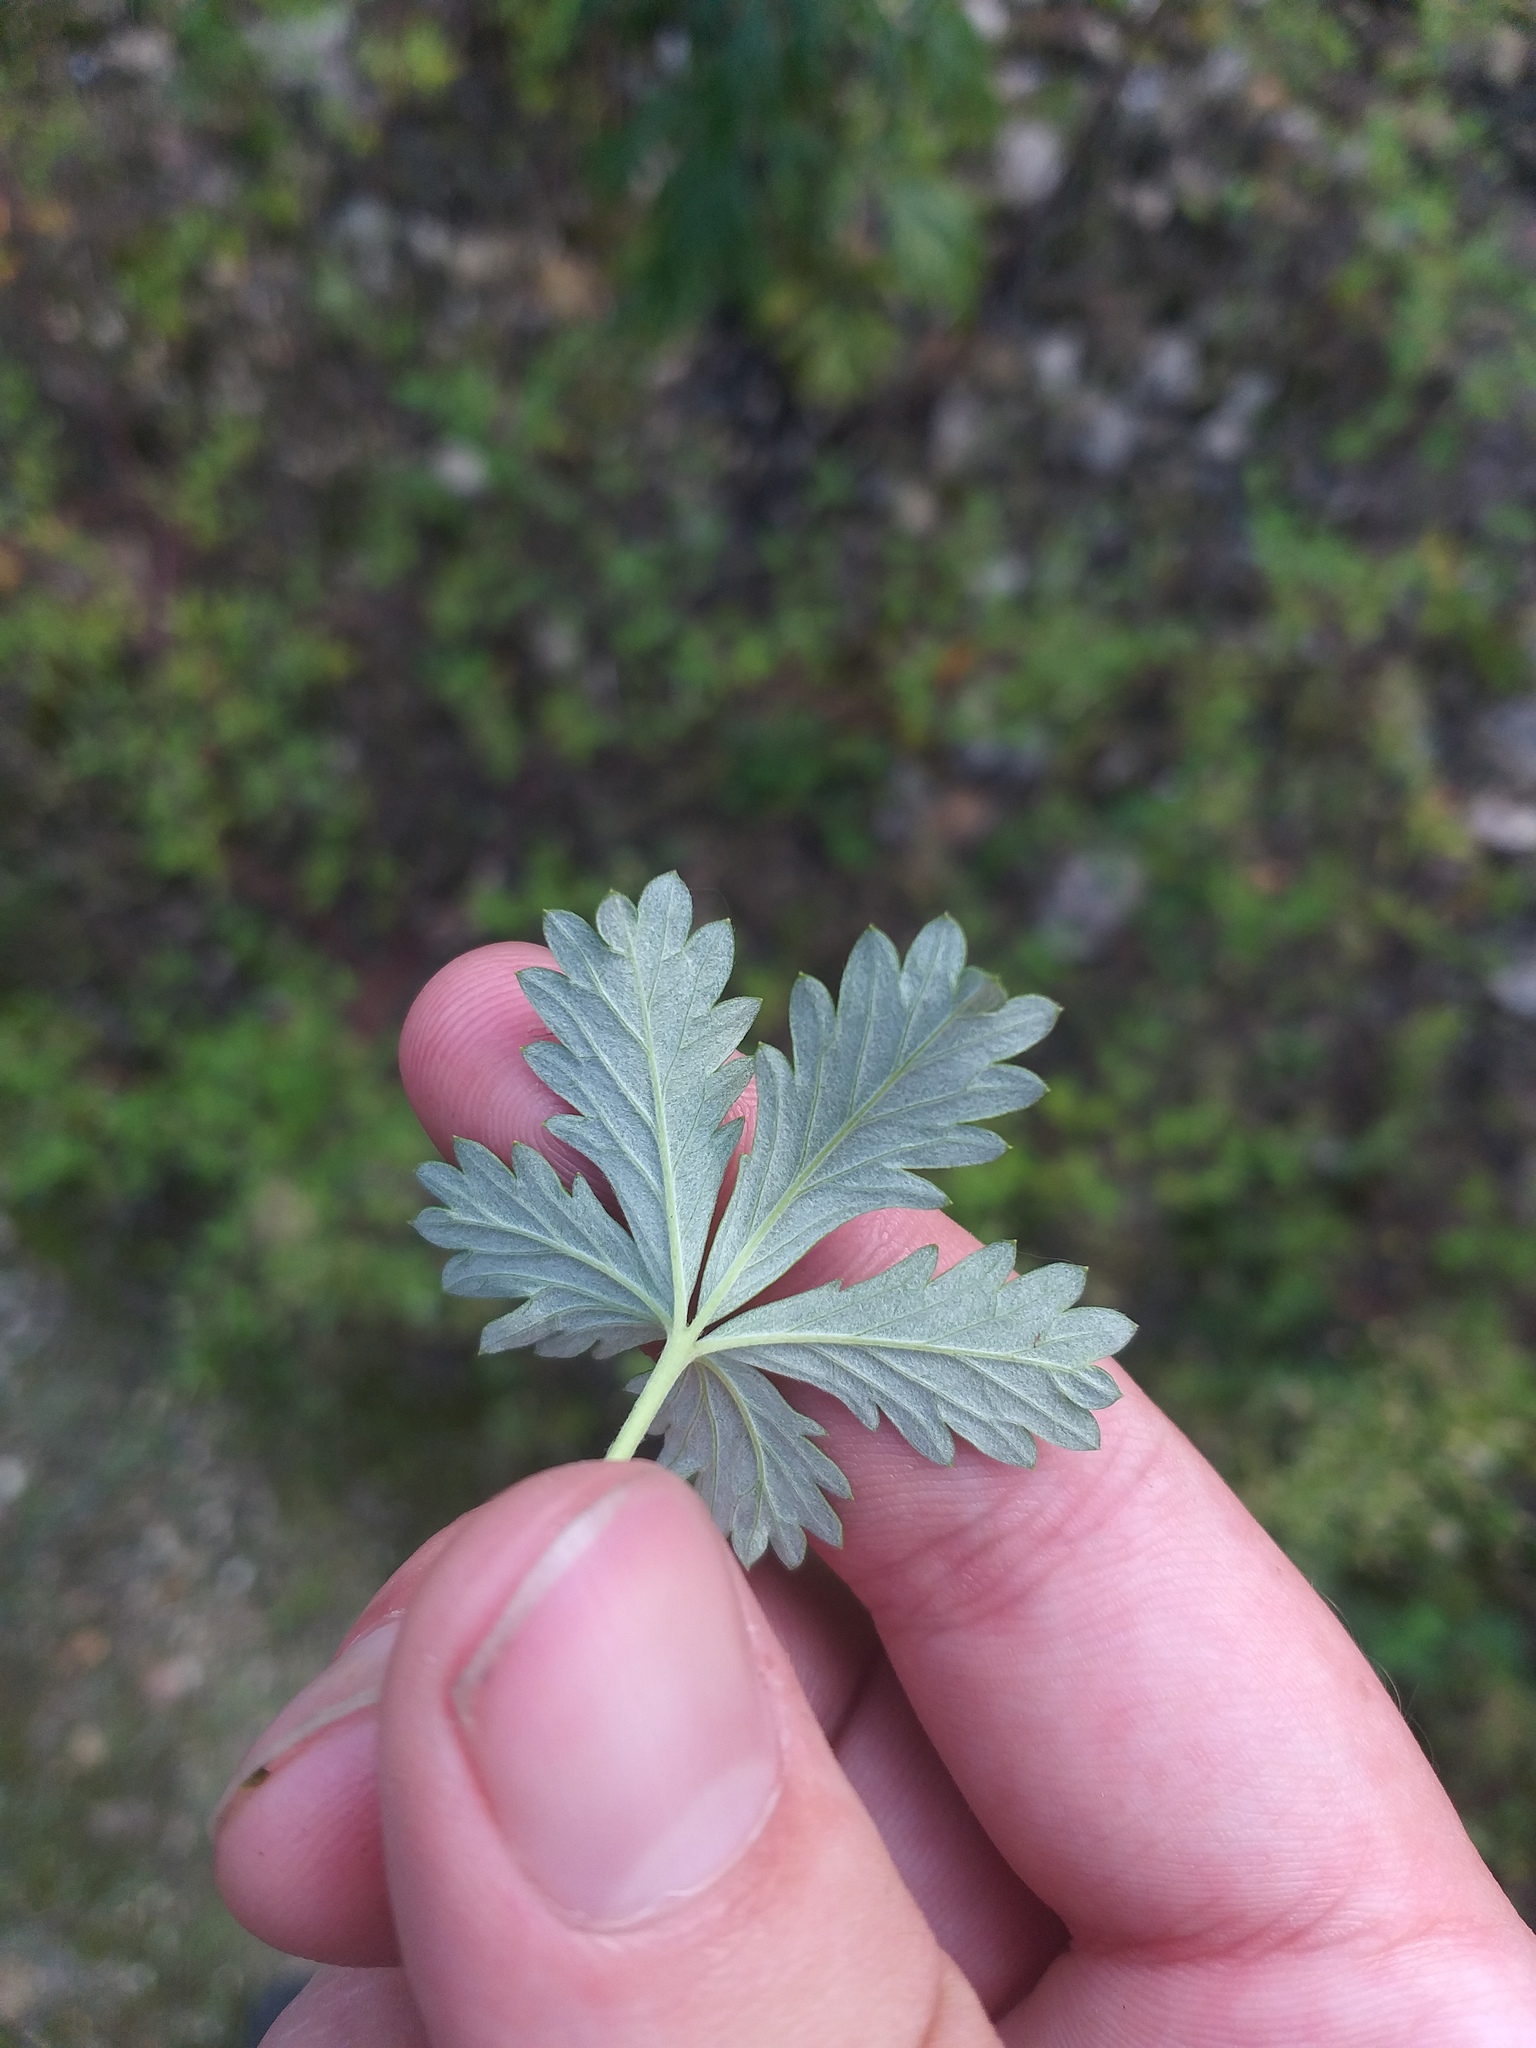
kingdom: Plantae
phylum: Tracheophyta
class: Magnoliopsida
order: Rosales
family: Rosaceae
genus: Potentilla
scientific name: Potentilla argentea
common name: Hoary cinquefoil
